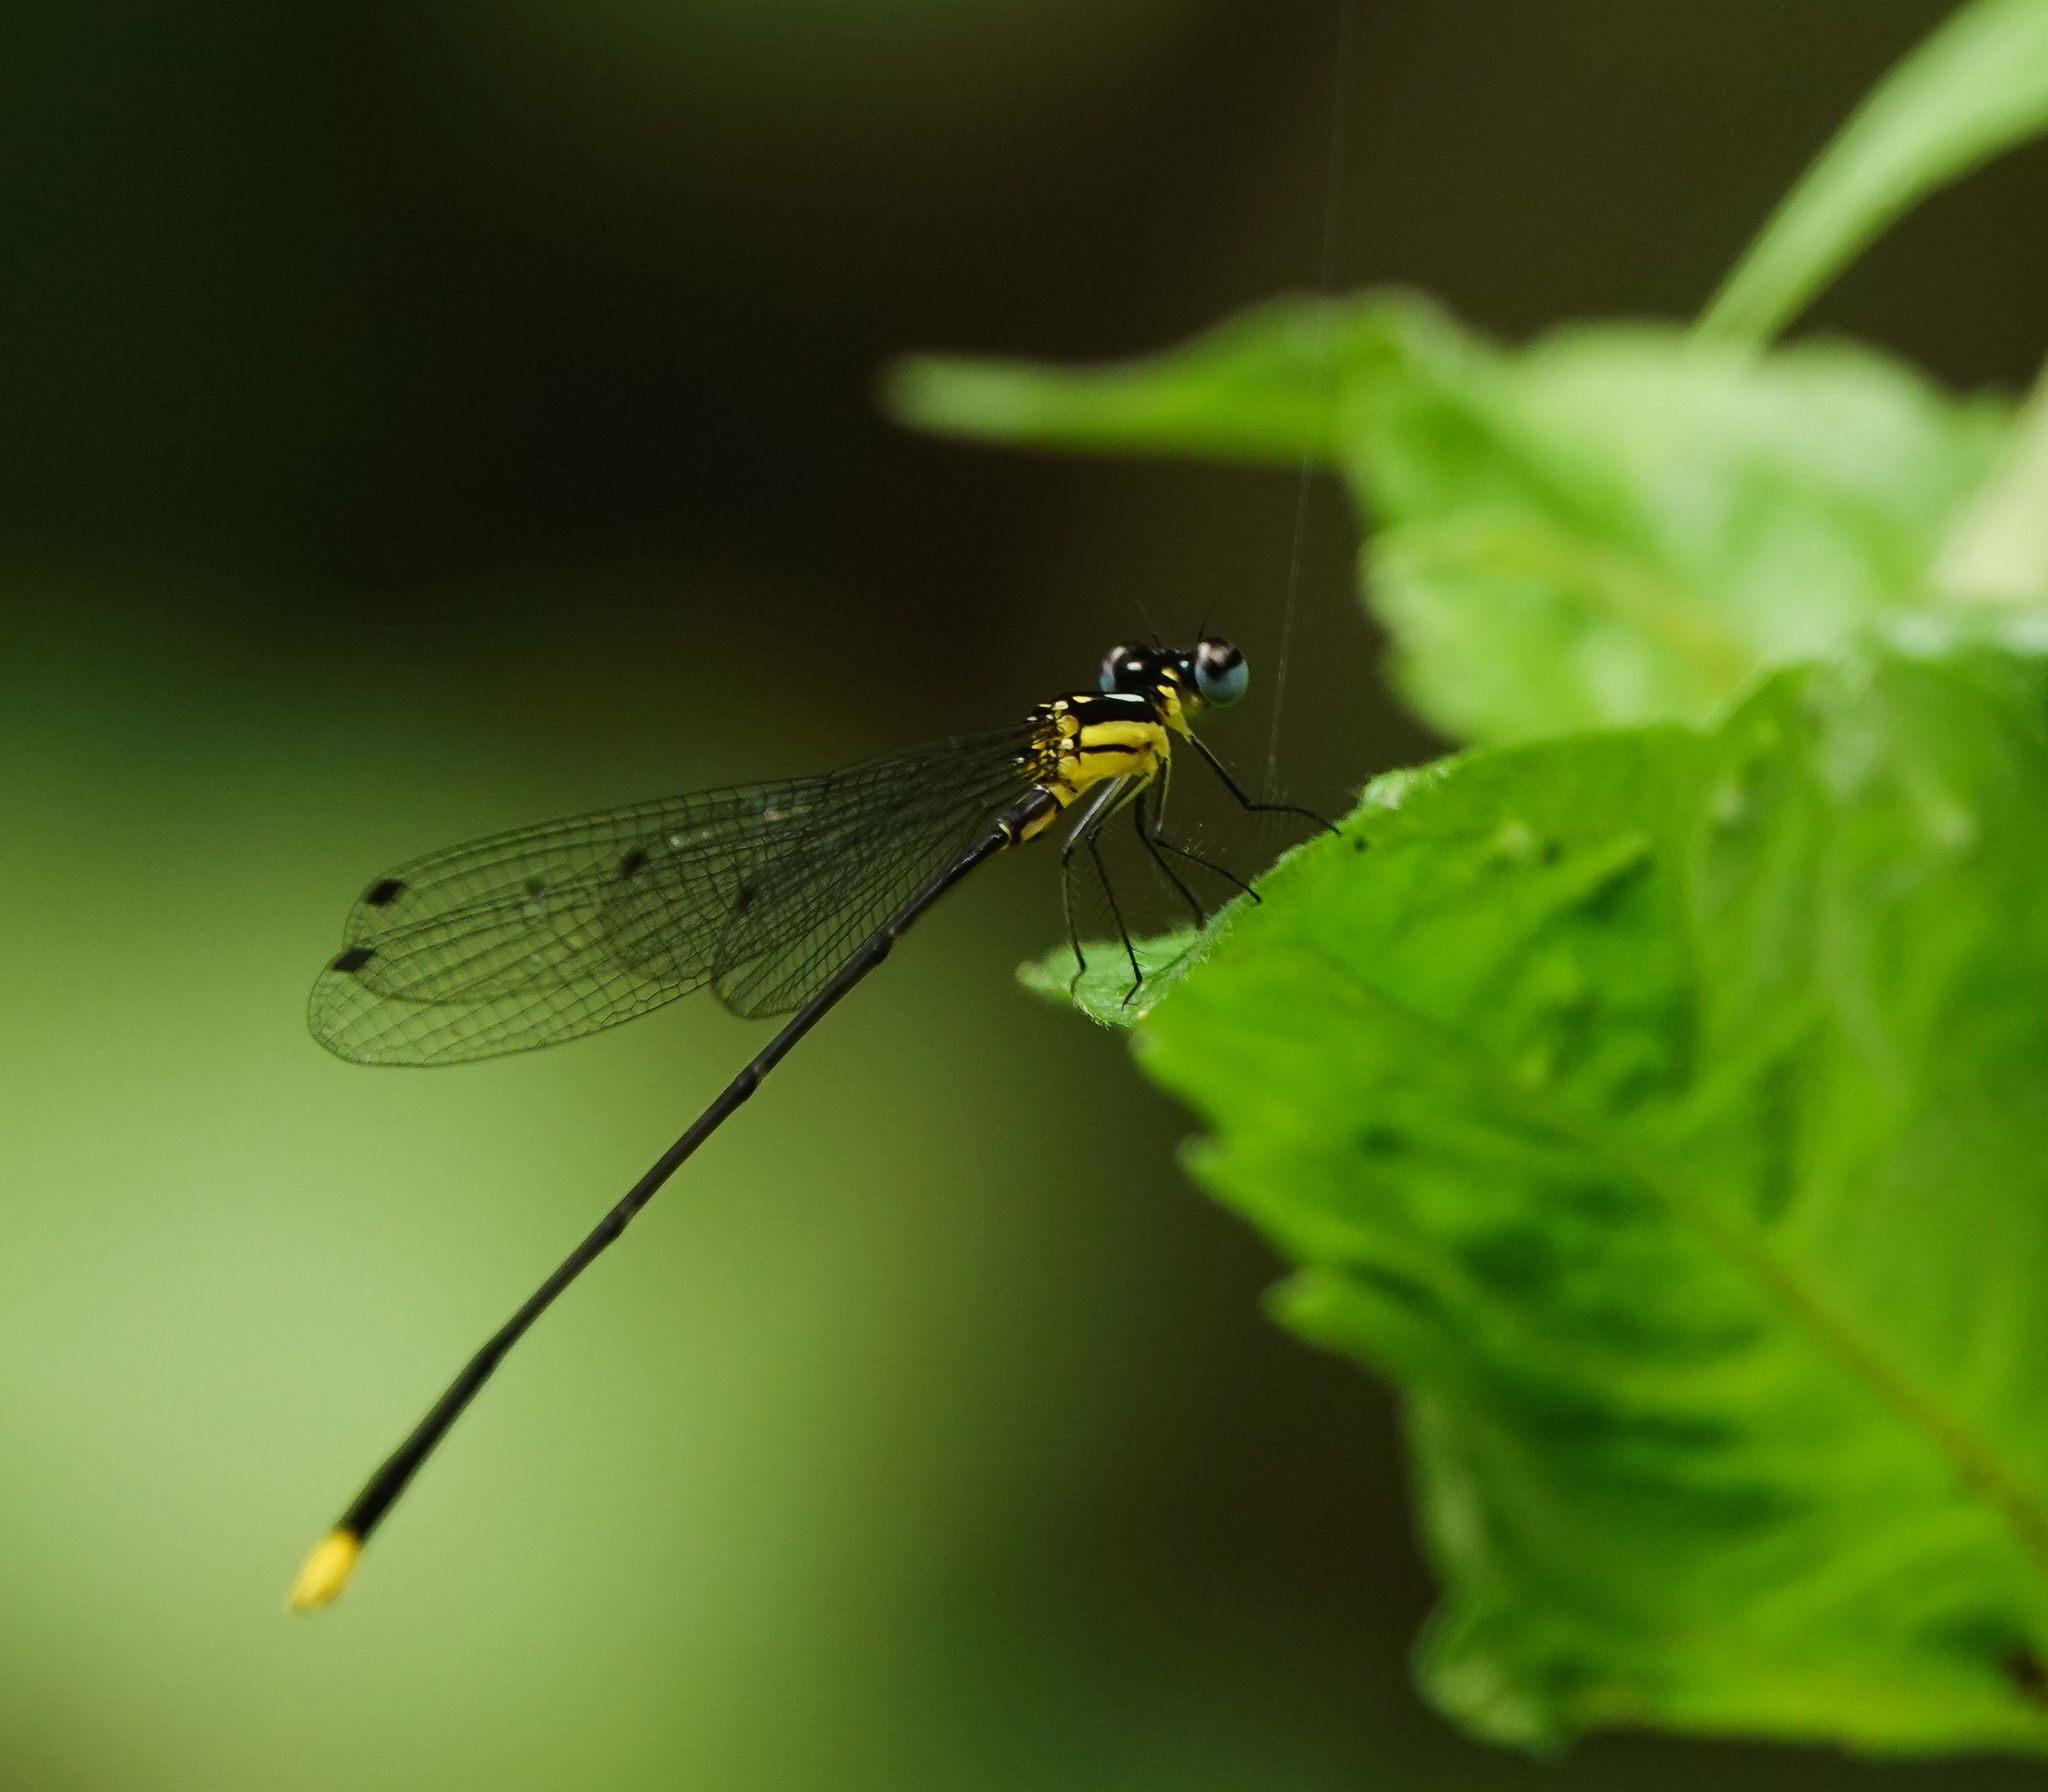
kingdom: Animalia
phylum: Arthropoda
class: Insecta
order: Odonata
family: Platycnemididae
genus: Coeliccia
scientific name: Coeliccia didyma
